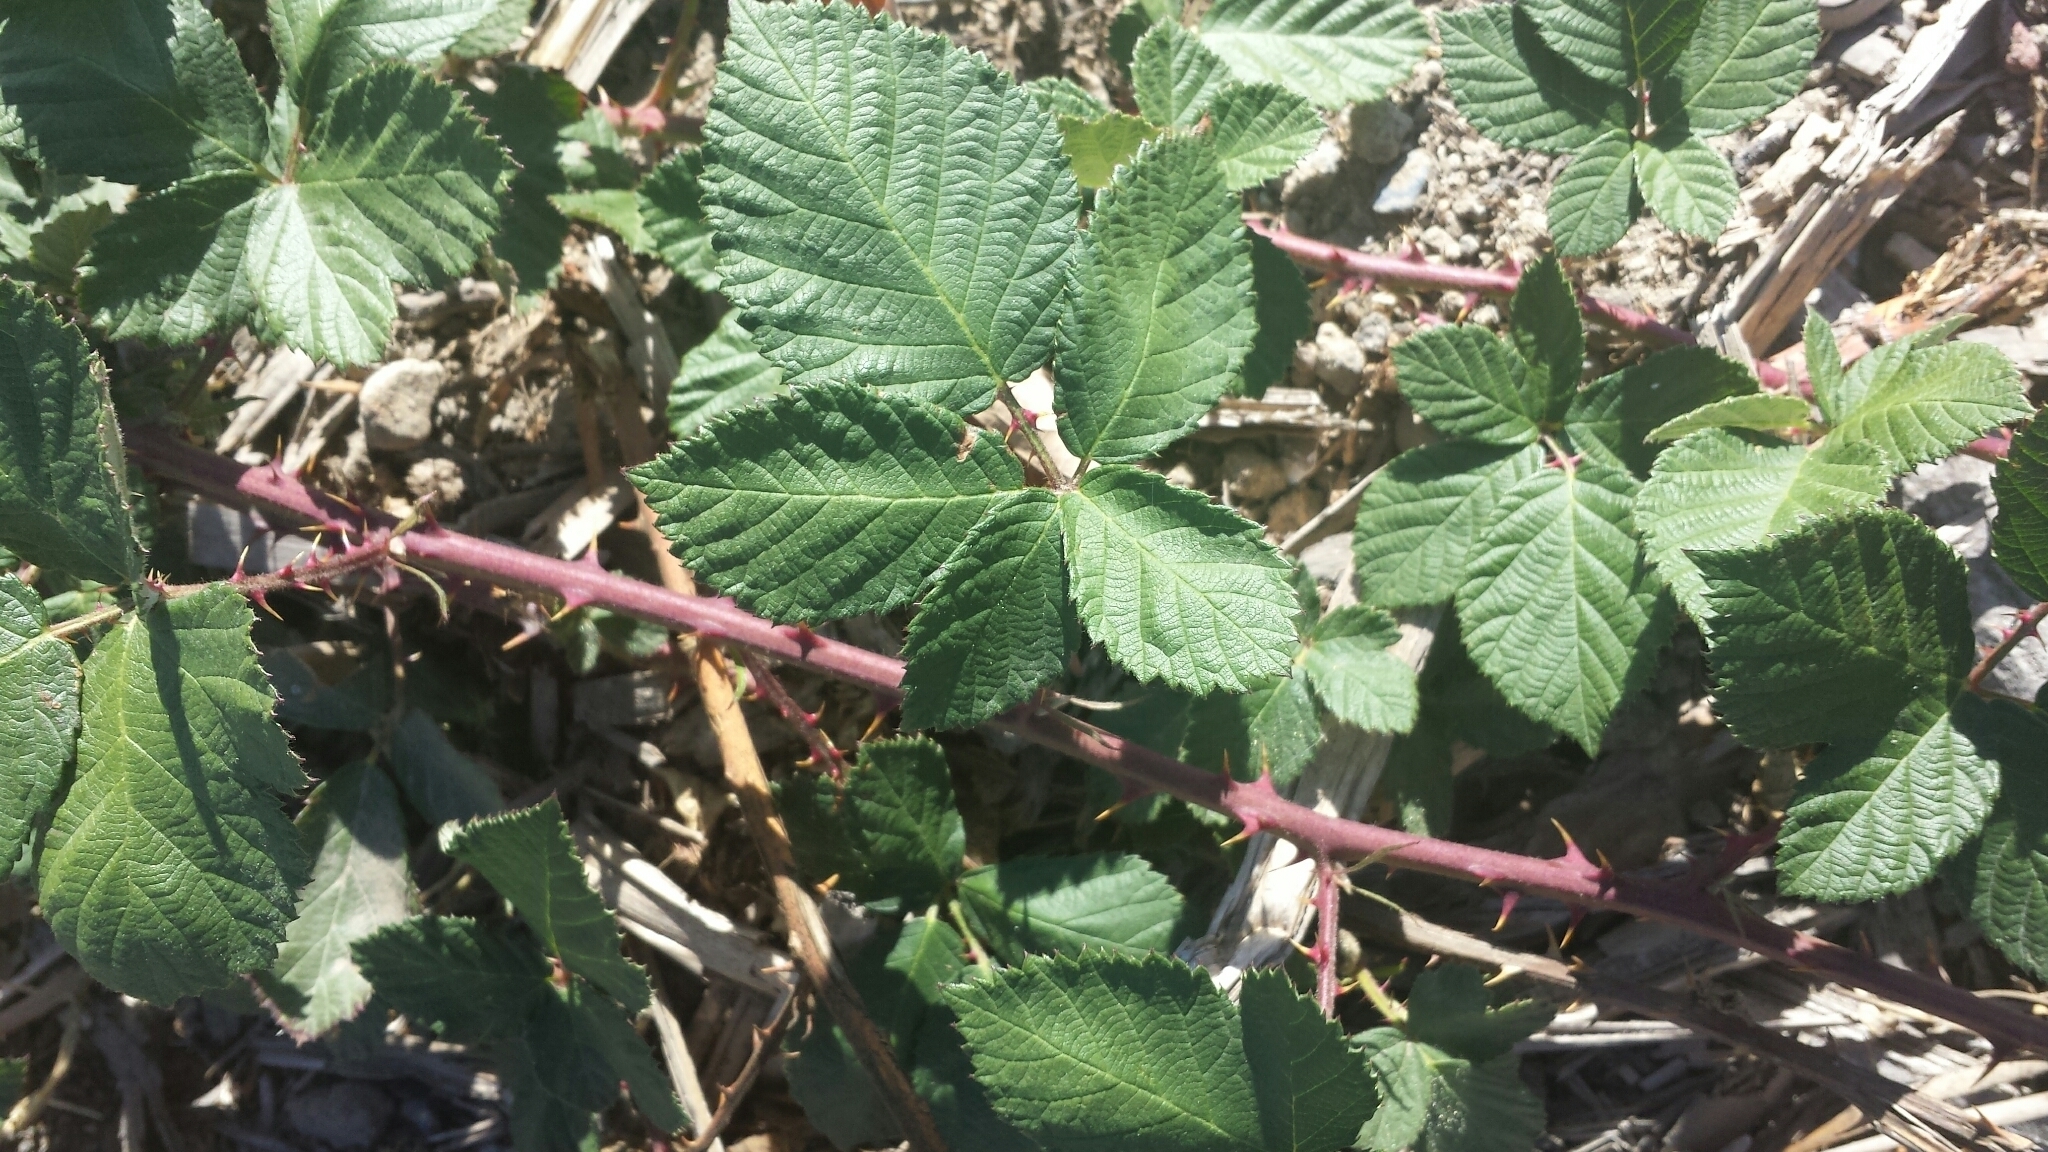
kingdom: Plantae
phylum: Tracheophyta
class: Magnoliopsida
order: Rosales
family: Rosaceae
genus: Rubus
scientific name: Rubus armeniacus
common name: Himalayan blackberry
